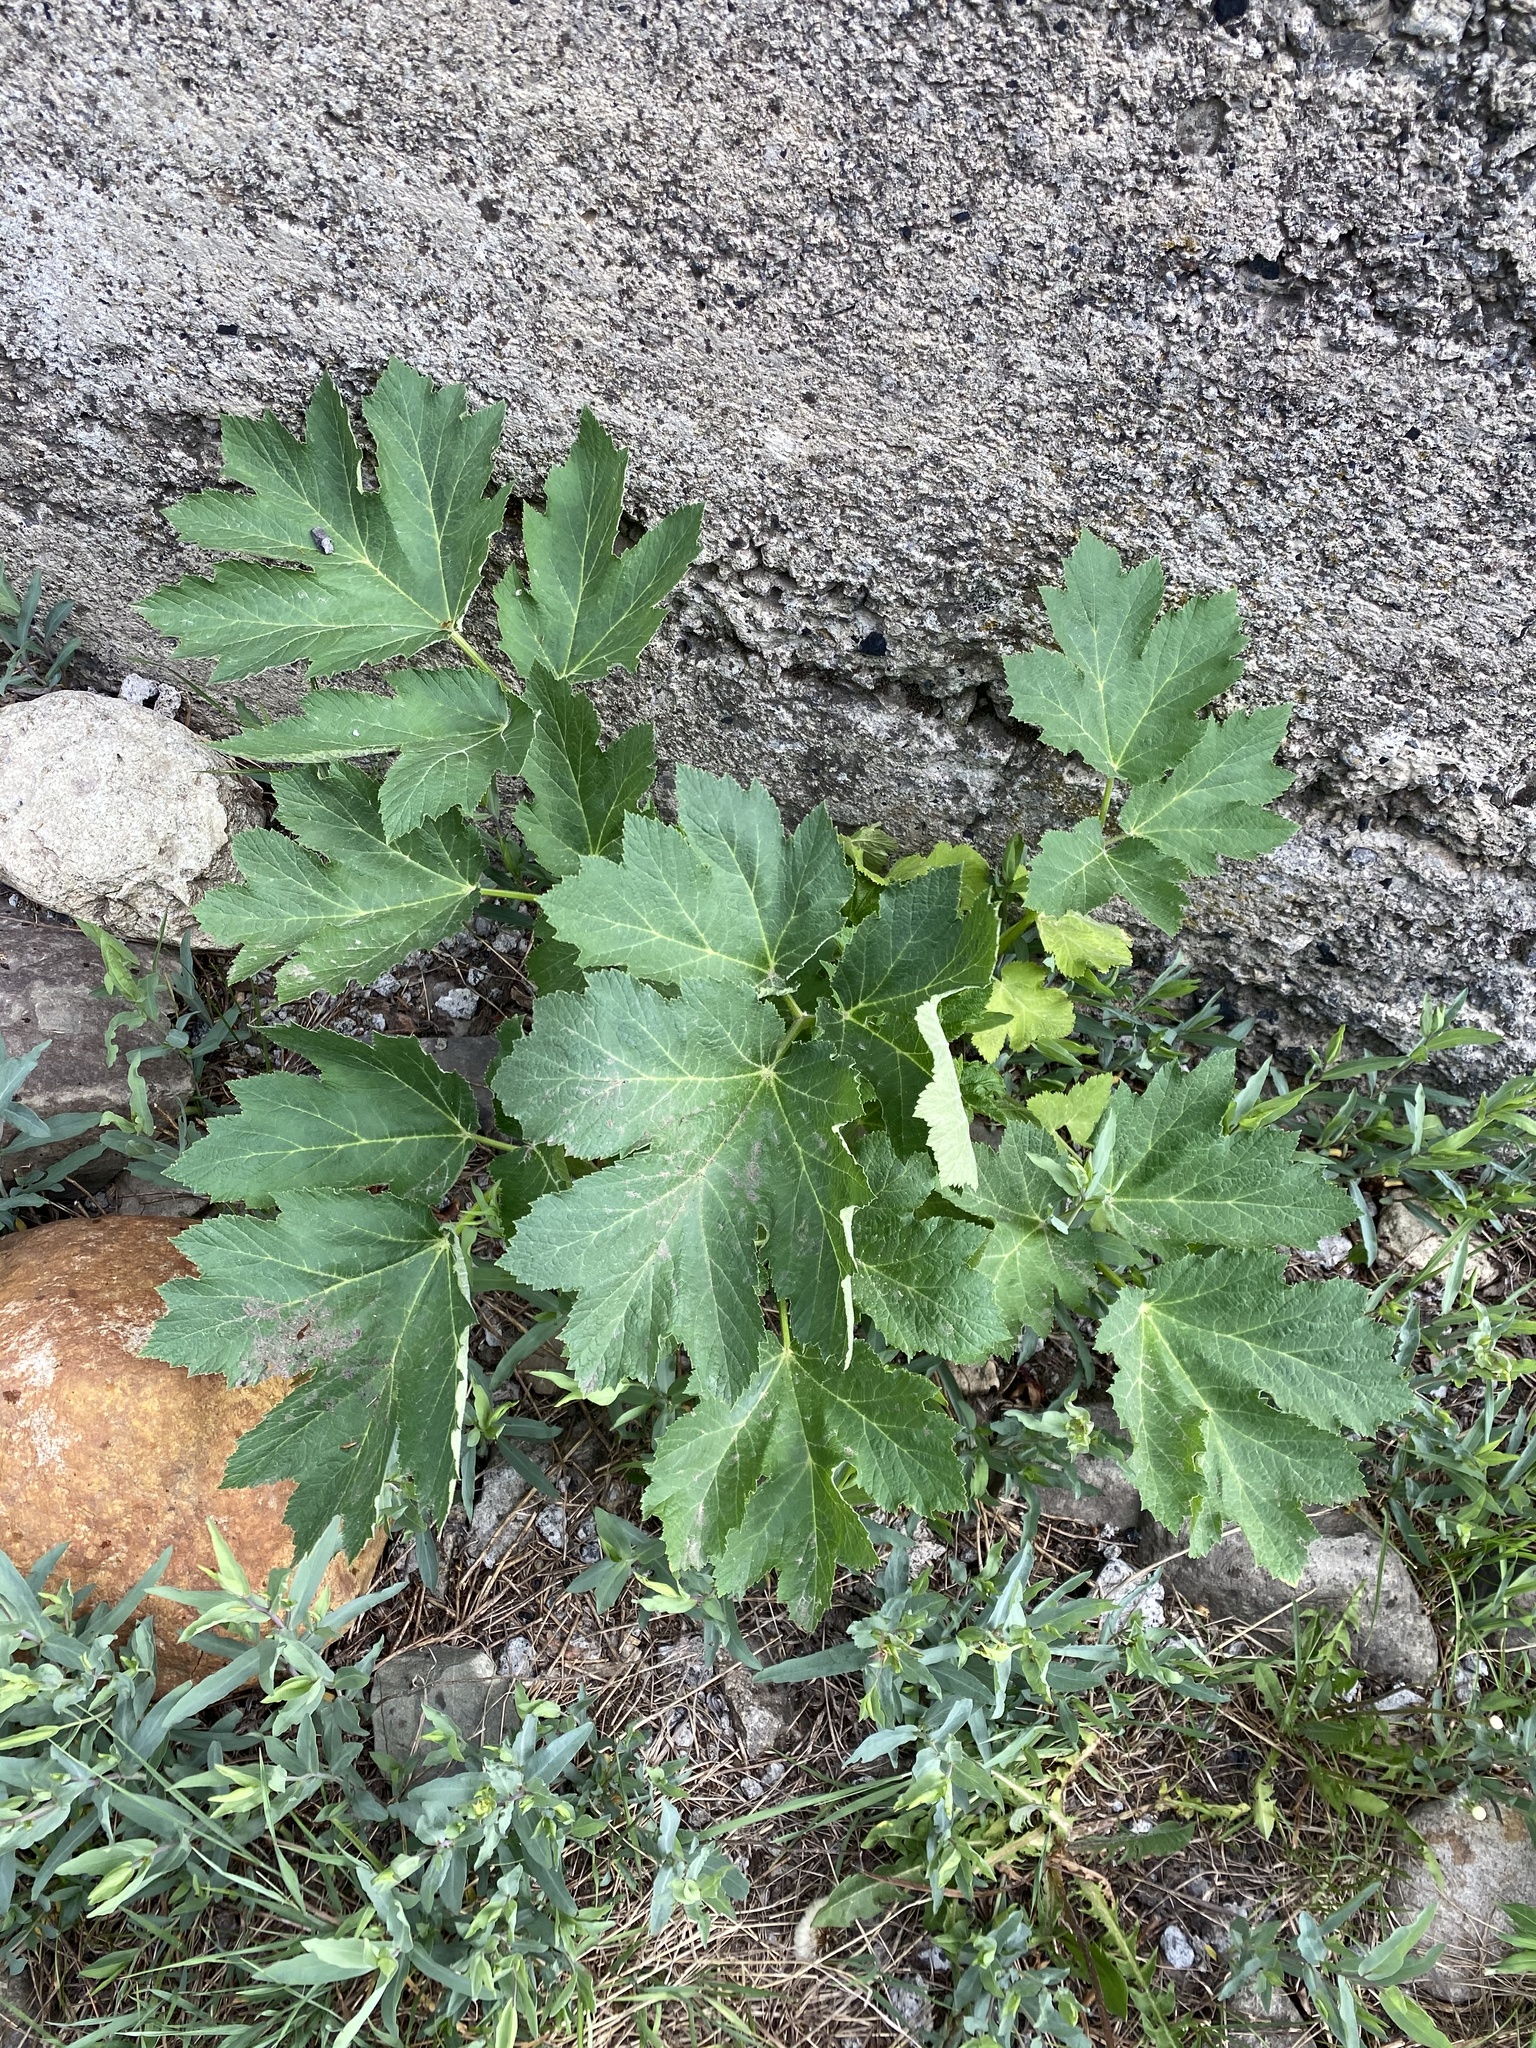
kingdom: Plantae
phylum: Tracheophyta
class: Magnoliopsida
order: Apiales
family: Apiaceae
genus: Heracleum
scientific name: Heracleum maximum
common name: American cow parsnip
